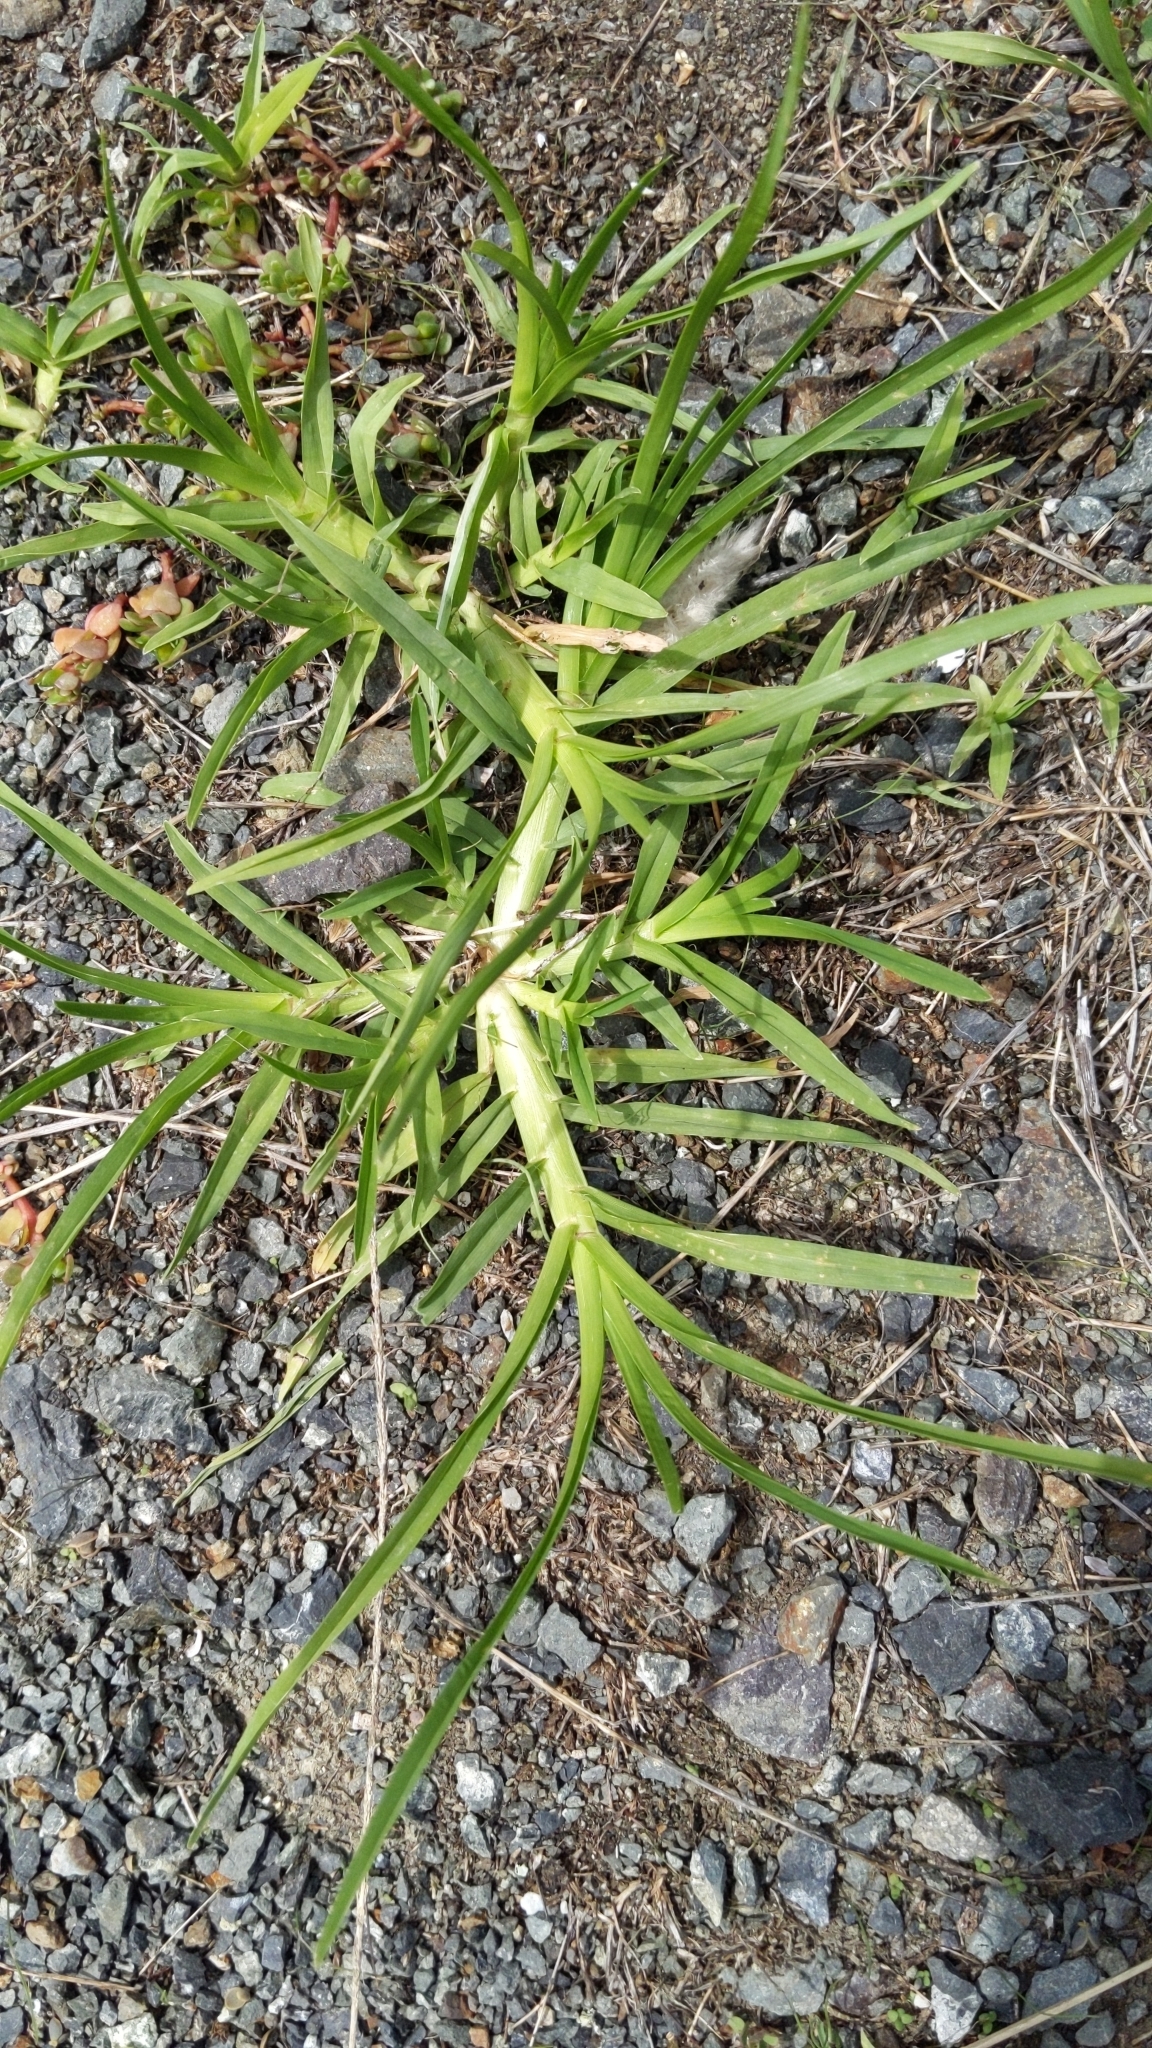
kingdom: Plantae
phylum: Tracheophyta
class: Liliopsida
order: Poales
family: Poaceae
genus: Cenchrus
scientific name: Cenchrus clandestinus
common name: Kikuyugrass
